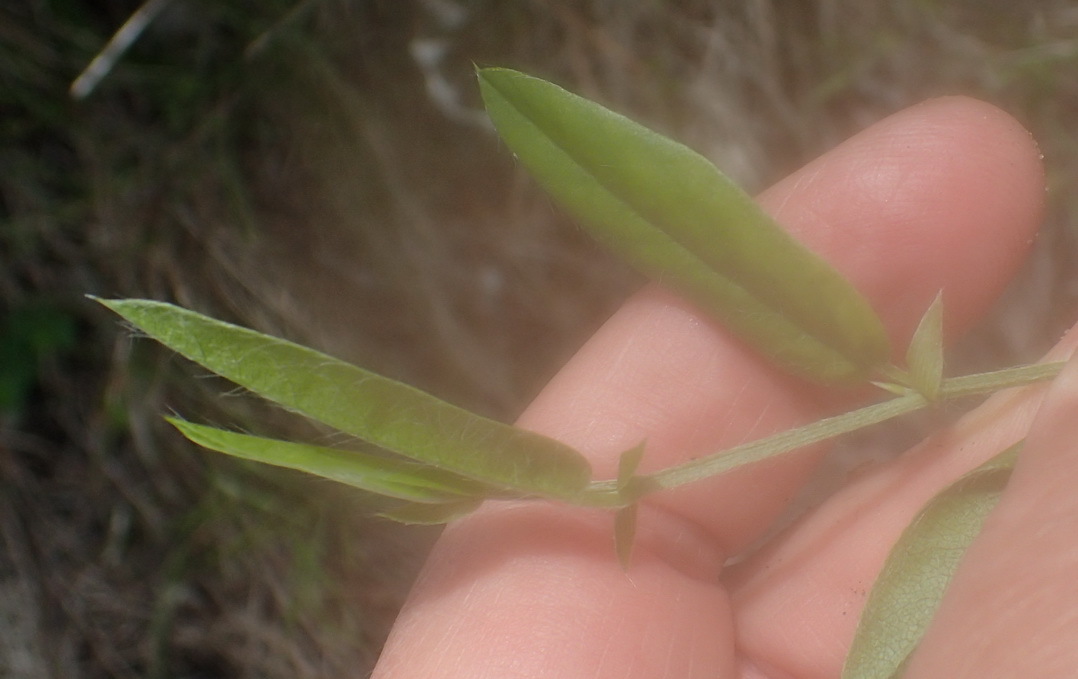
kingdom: Plantae
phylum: Tracheophyta
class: Magnoliopsida
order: Fabales
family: Fabaceae
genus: Psoralea
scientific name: Psoralea plauta
